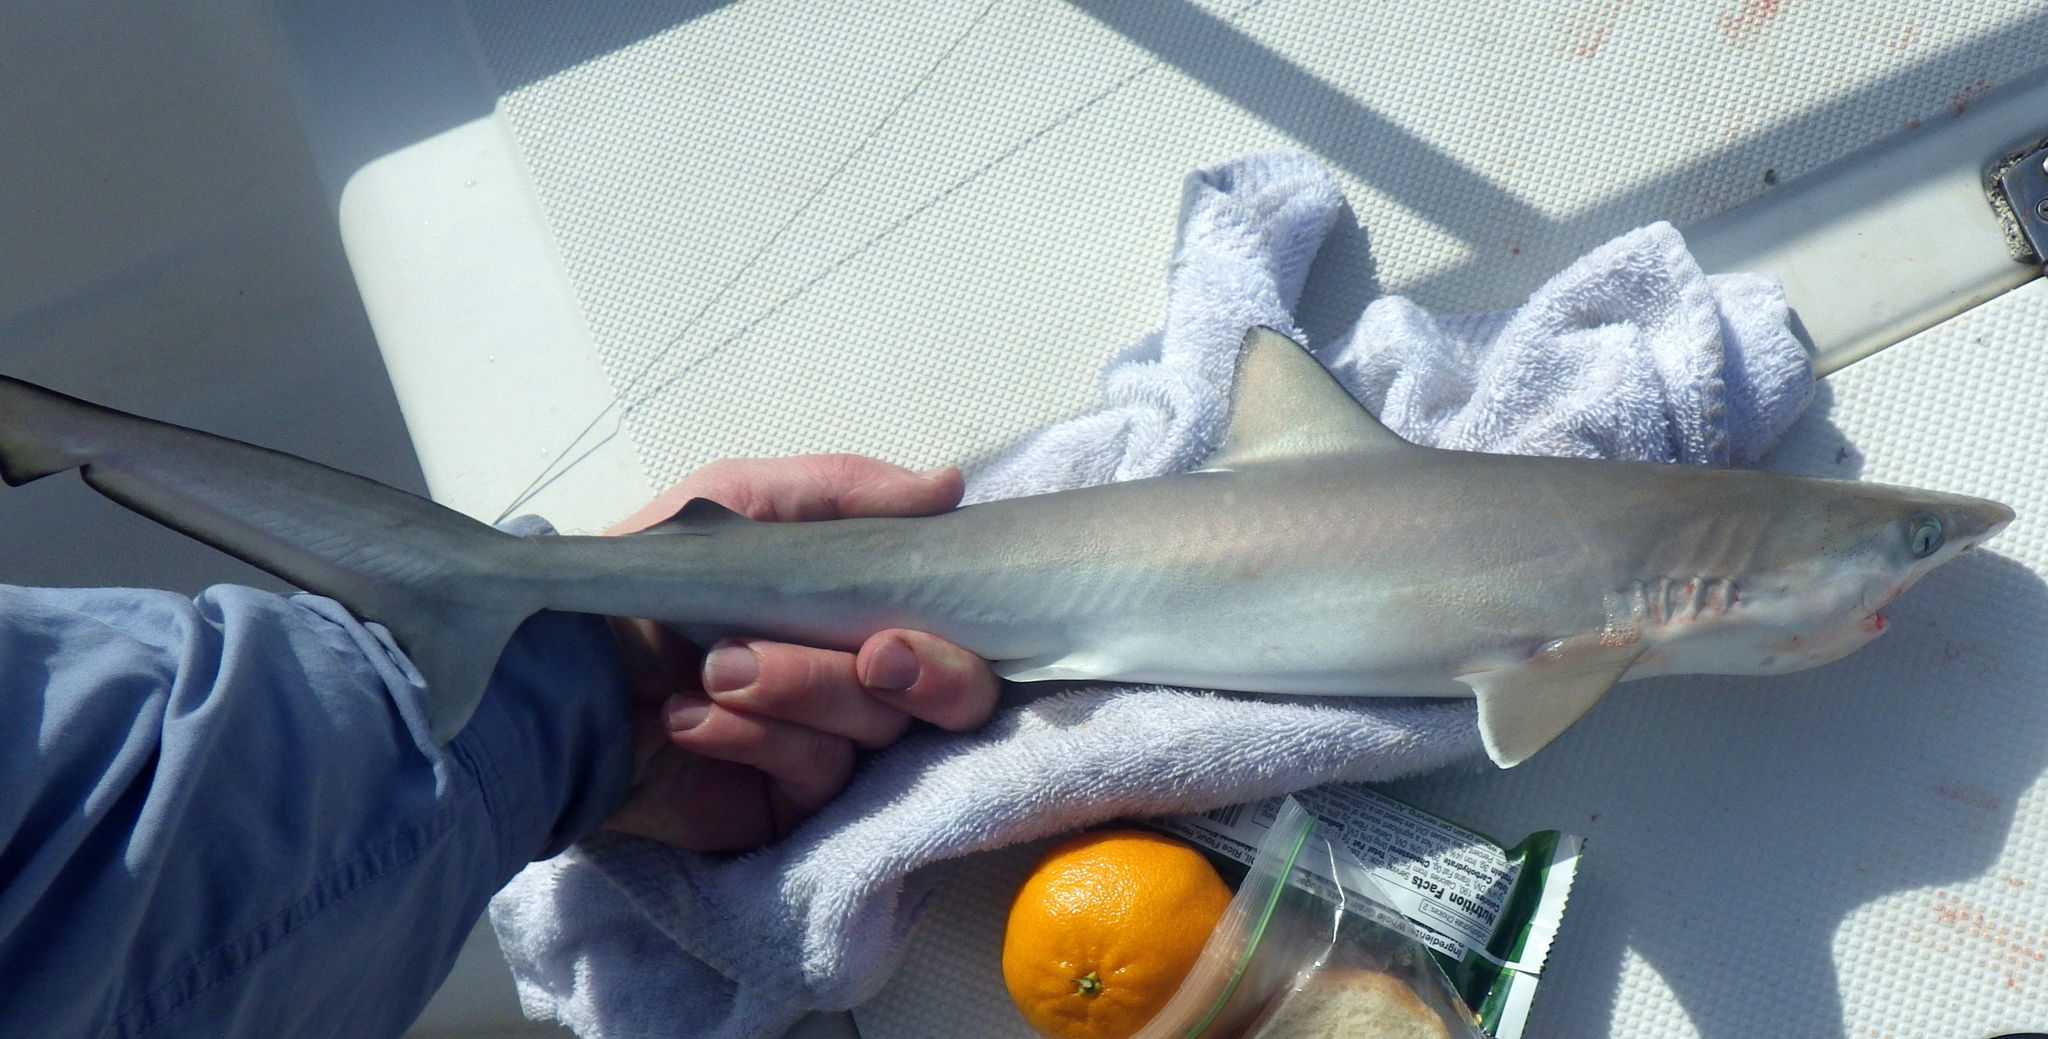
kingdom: Animalia
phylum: Chordata
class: Elasmobranchii
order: Carcharhiniformes
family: Carcharhinidae
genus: Rhizoprionodon
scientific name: Rhizoprionodon terraenovae
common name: Atlantic sharpnose shark
